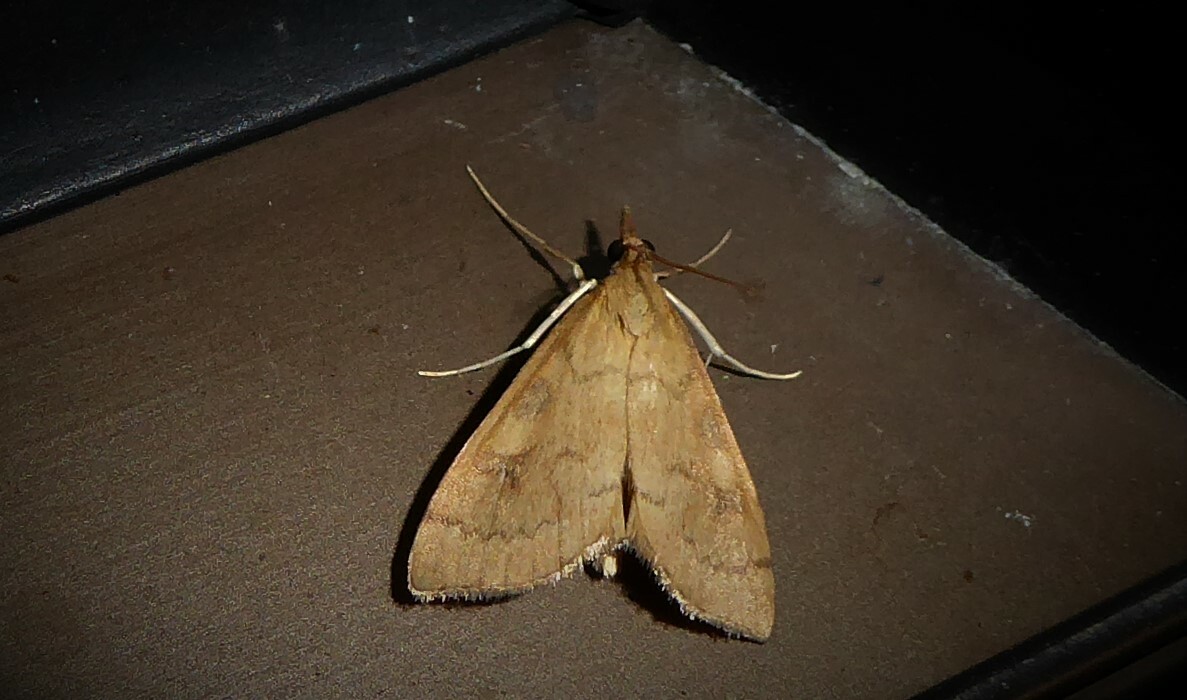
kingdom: Animalia
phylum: Arthropoda
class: Insecta
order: Lepidoptera
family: Crambidae
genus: Udea
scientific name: Udea Mnesictena flavidalis
